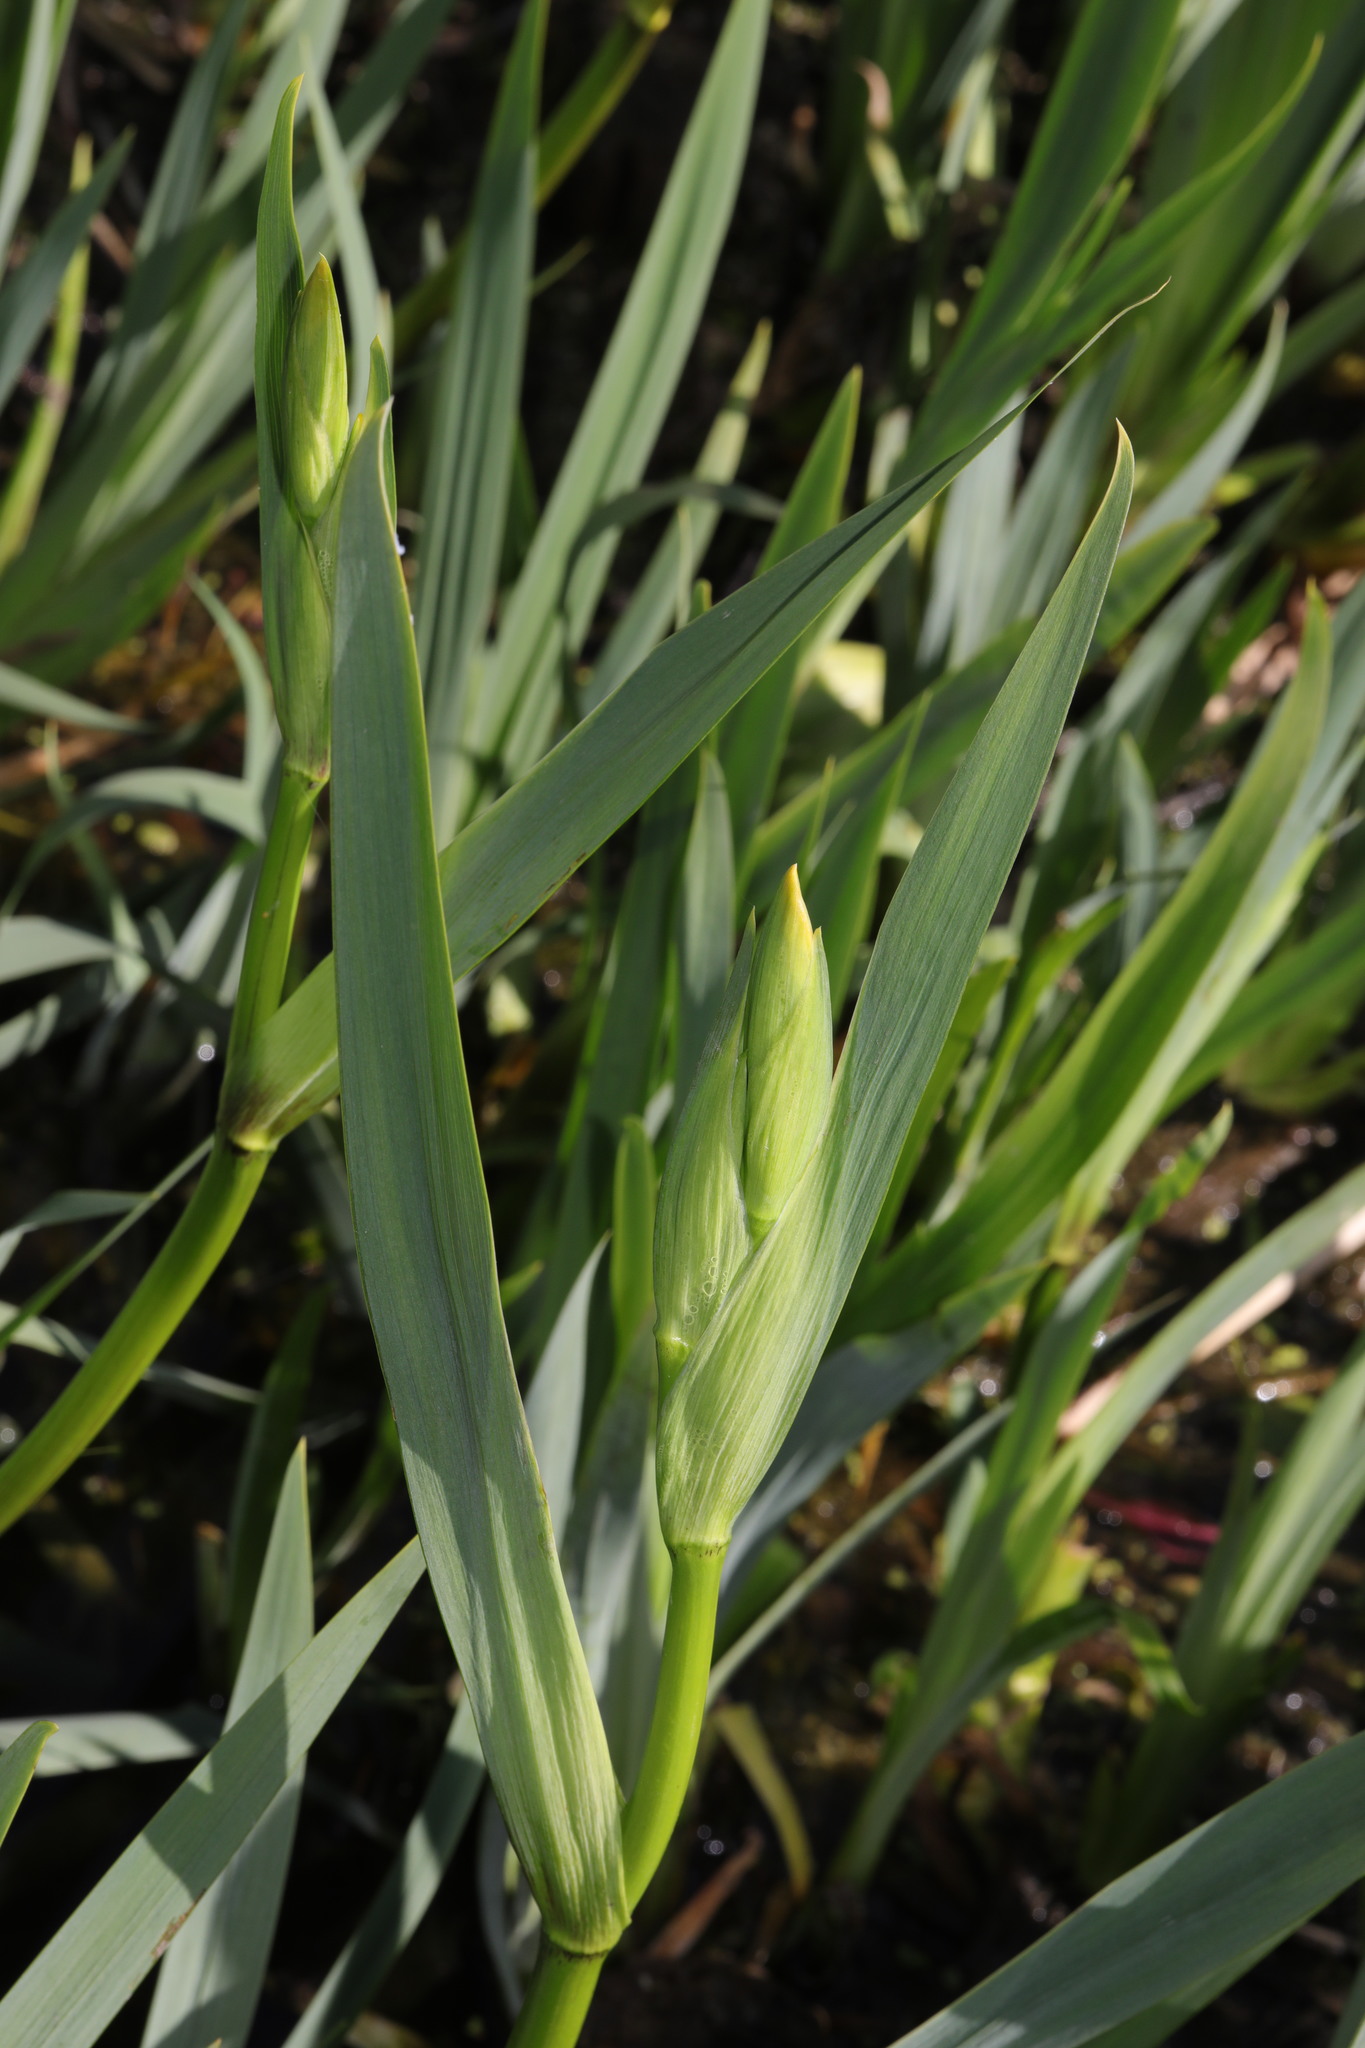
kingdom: Plantae
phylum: Tracheophyta
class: Liliopsida
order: Asparagales
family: Iridaceae
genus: Iris
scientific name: Iris pseudacorus
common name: Yellow flag
